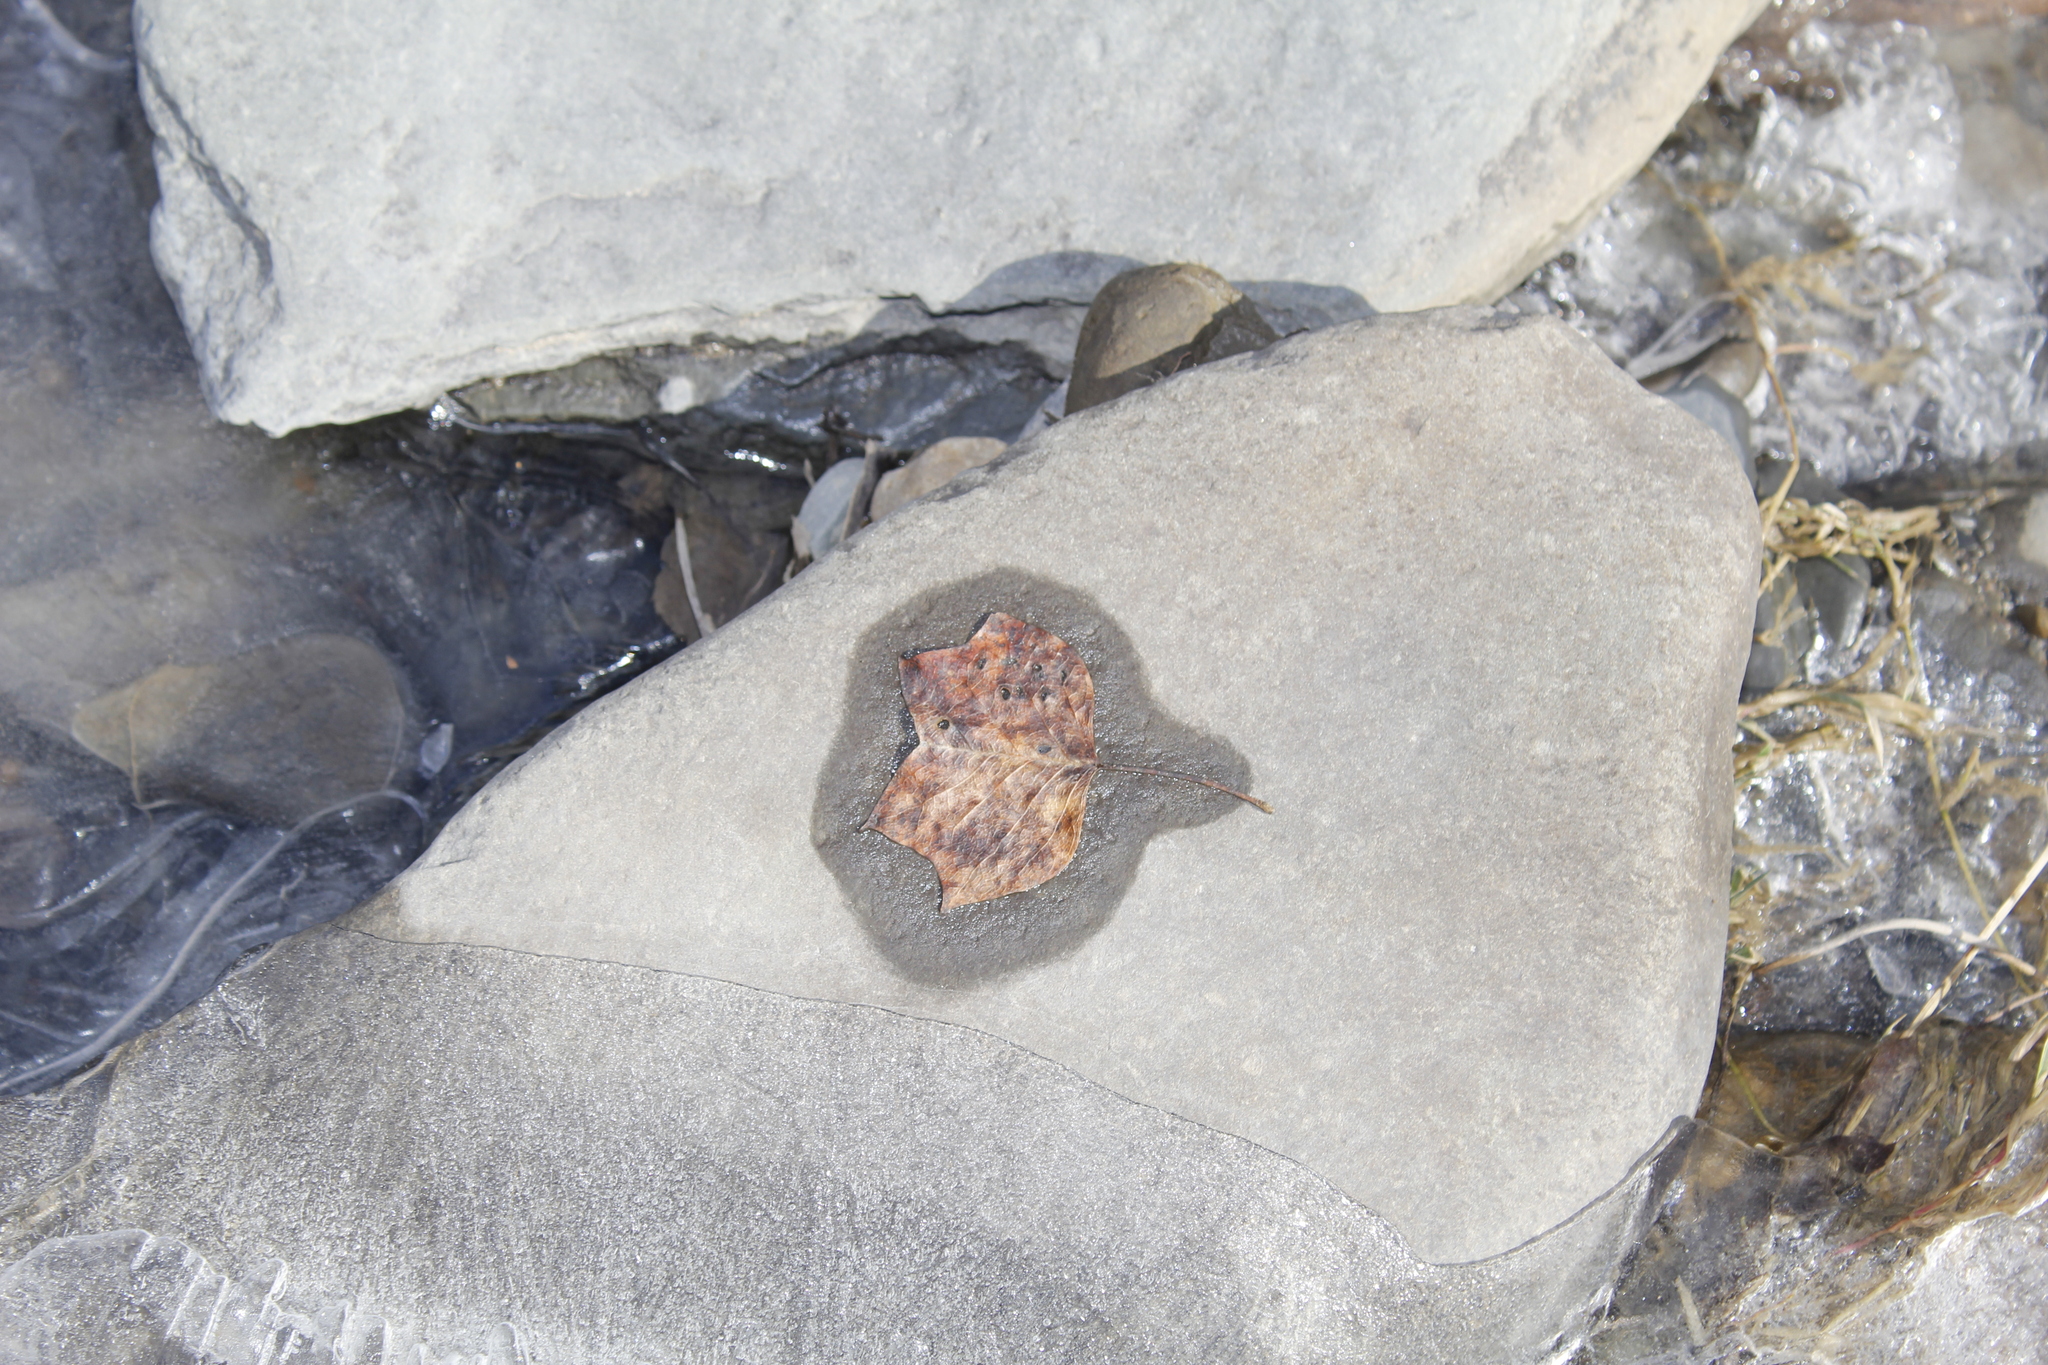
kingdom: Plantae
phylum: Tracheophyta
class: Magnoliopsida
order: Magnoliales
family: Magnoliaceae
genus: Liriodendron
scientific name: Liriodendron tulipifera
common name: Tulip tree
